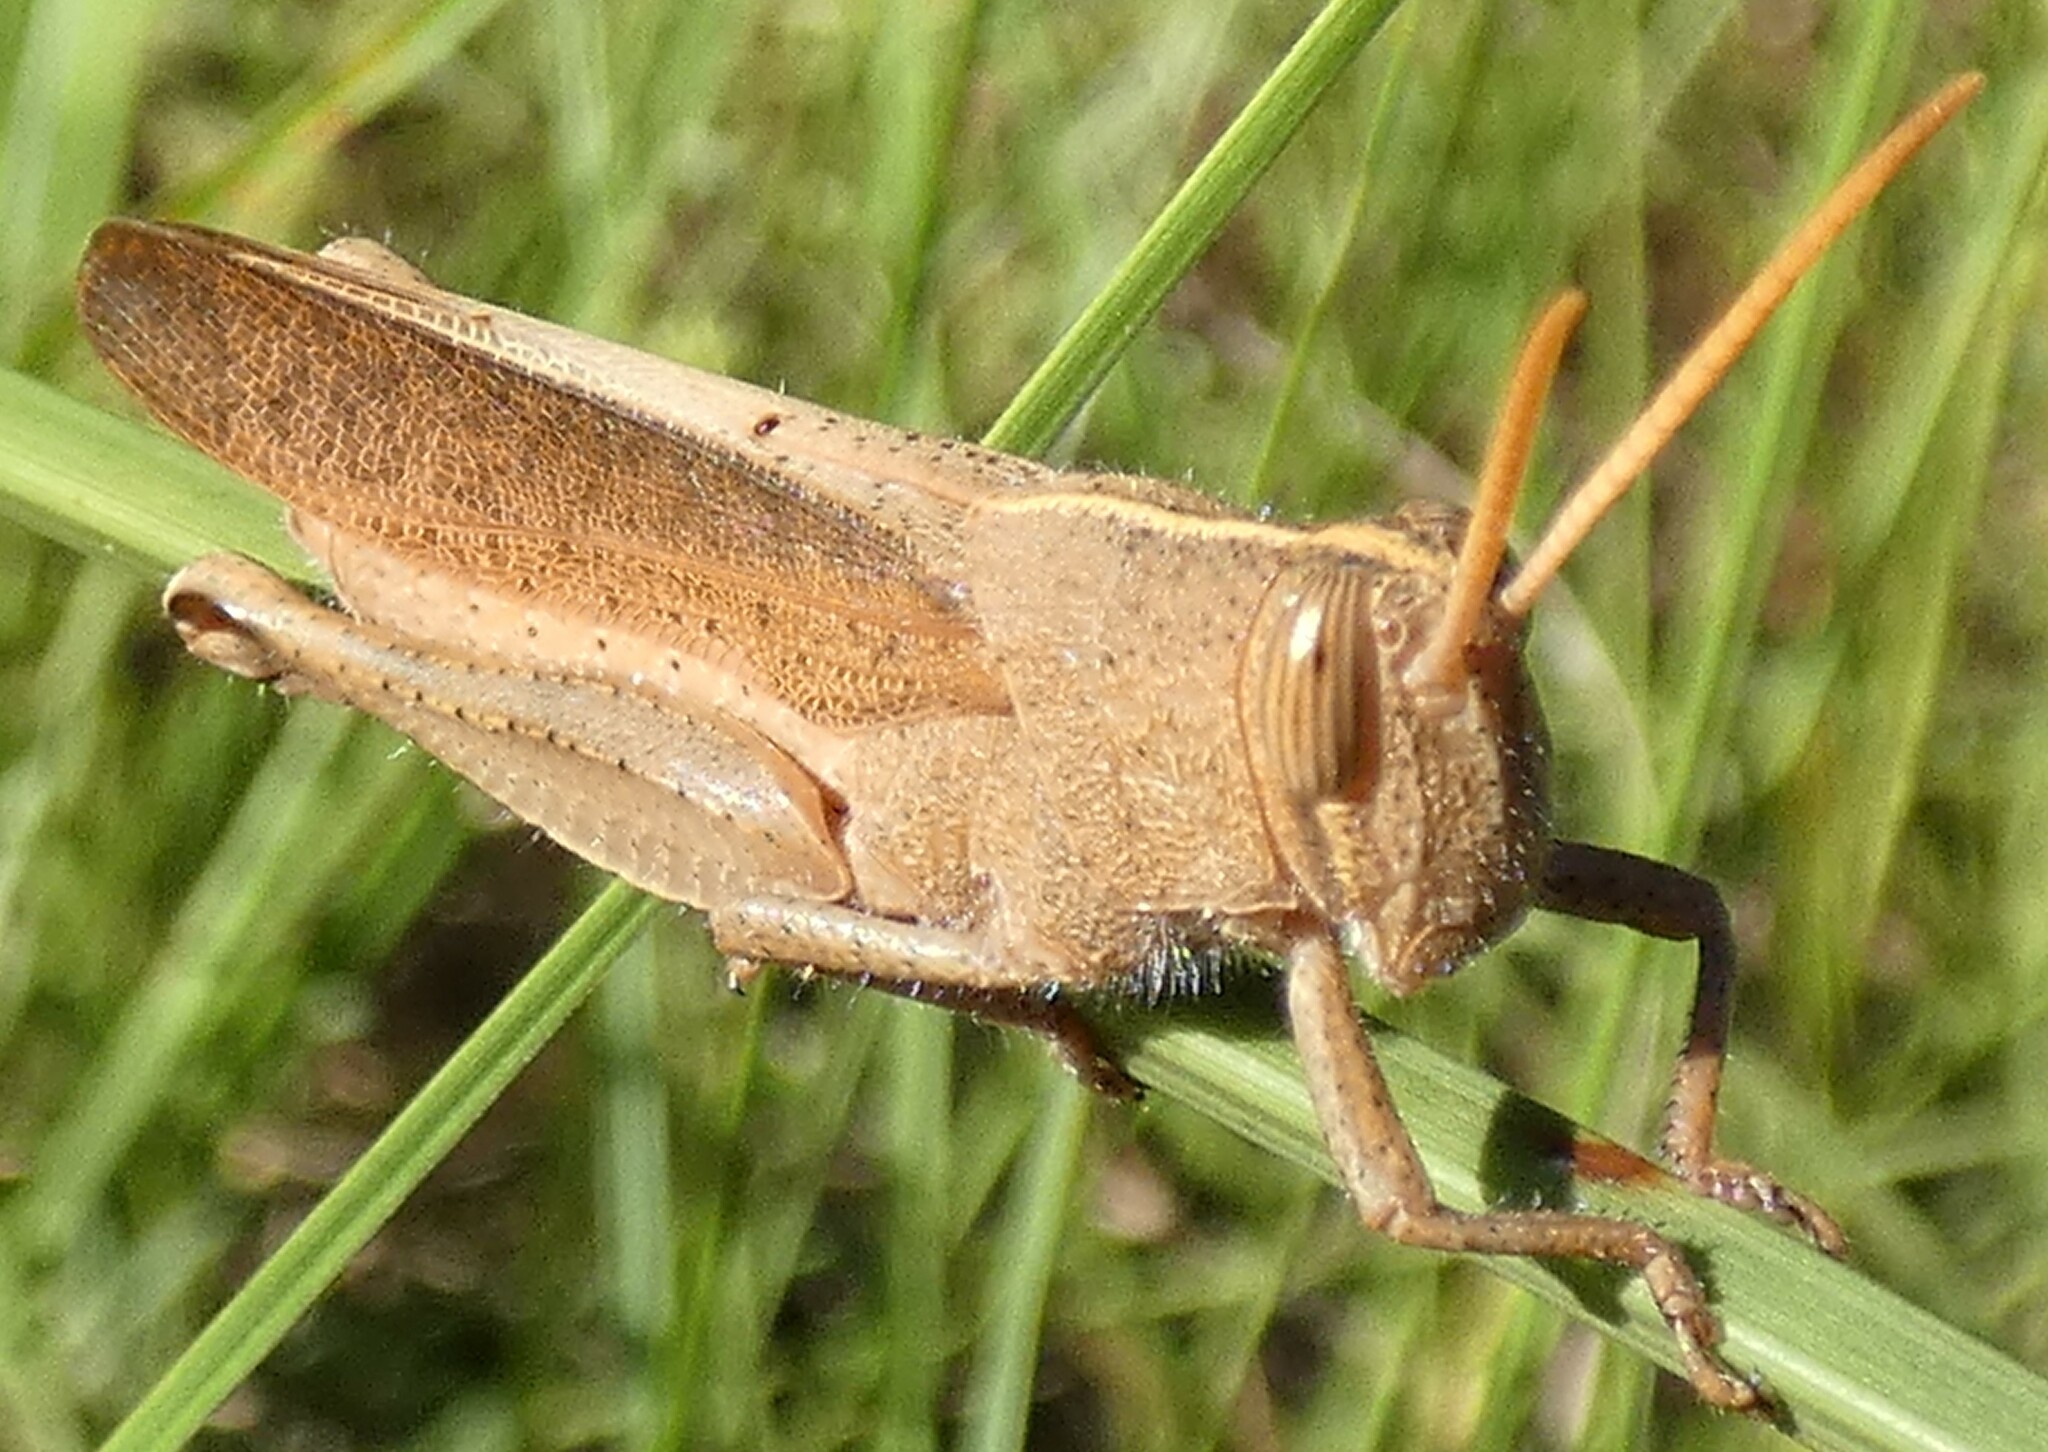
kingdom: Animalia
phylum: Arthropoda
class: Insecta
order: Orthoptera
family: Acrididae
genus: Schistocerca
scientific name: Schistocerca damnifica
